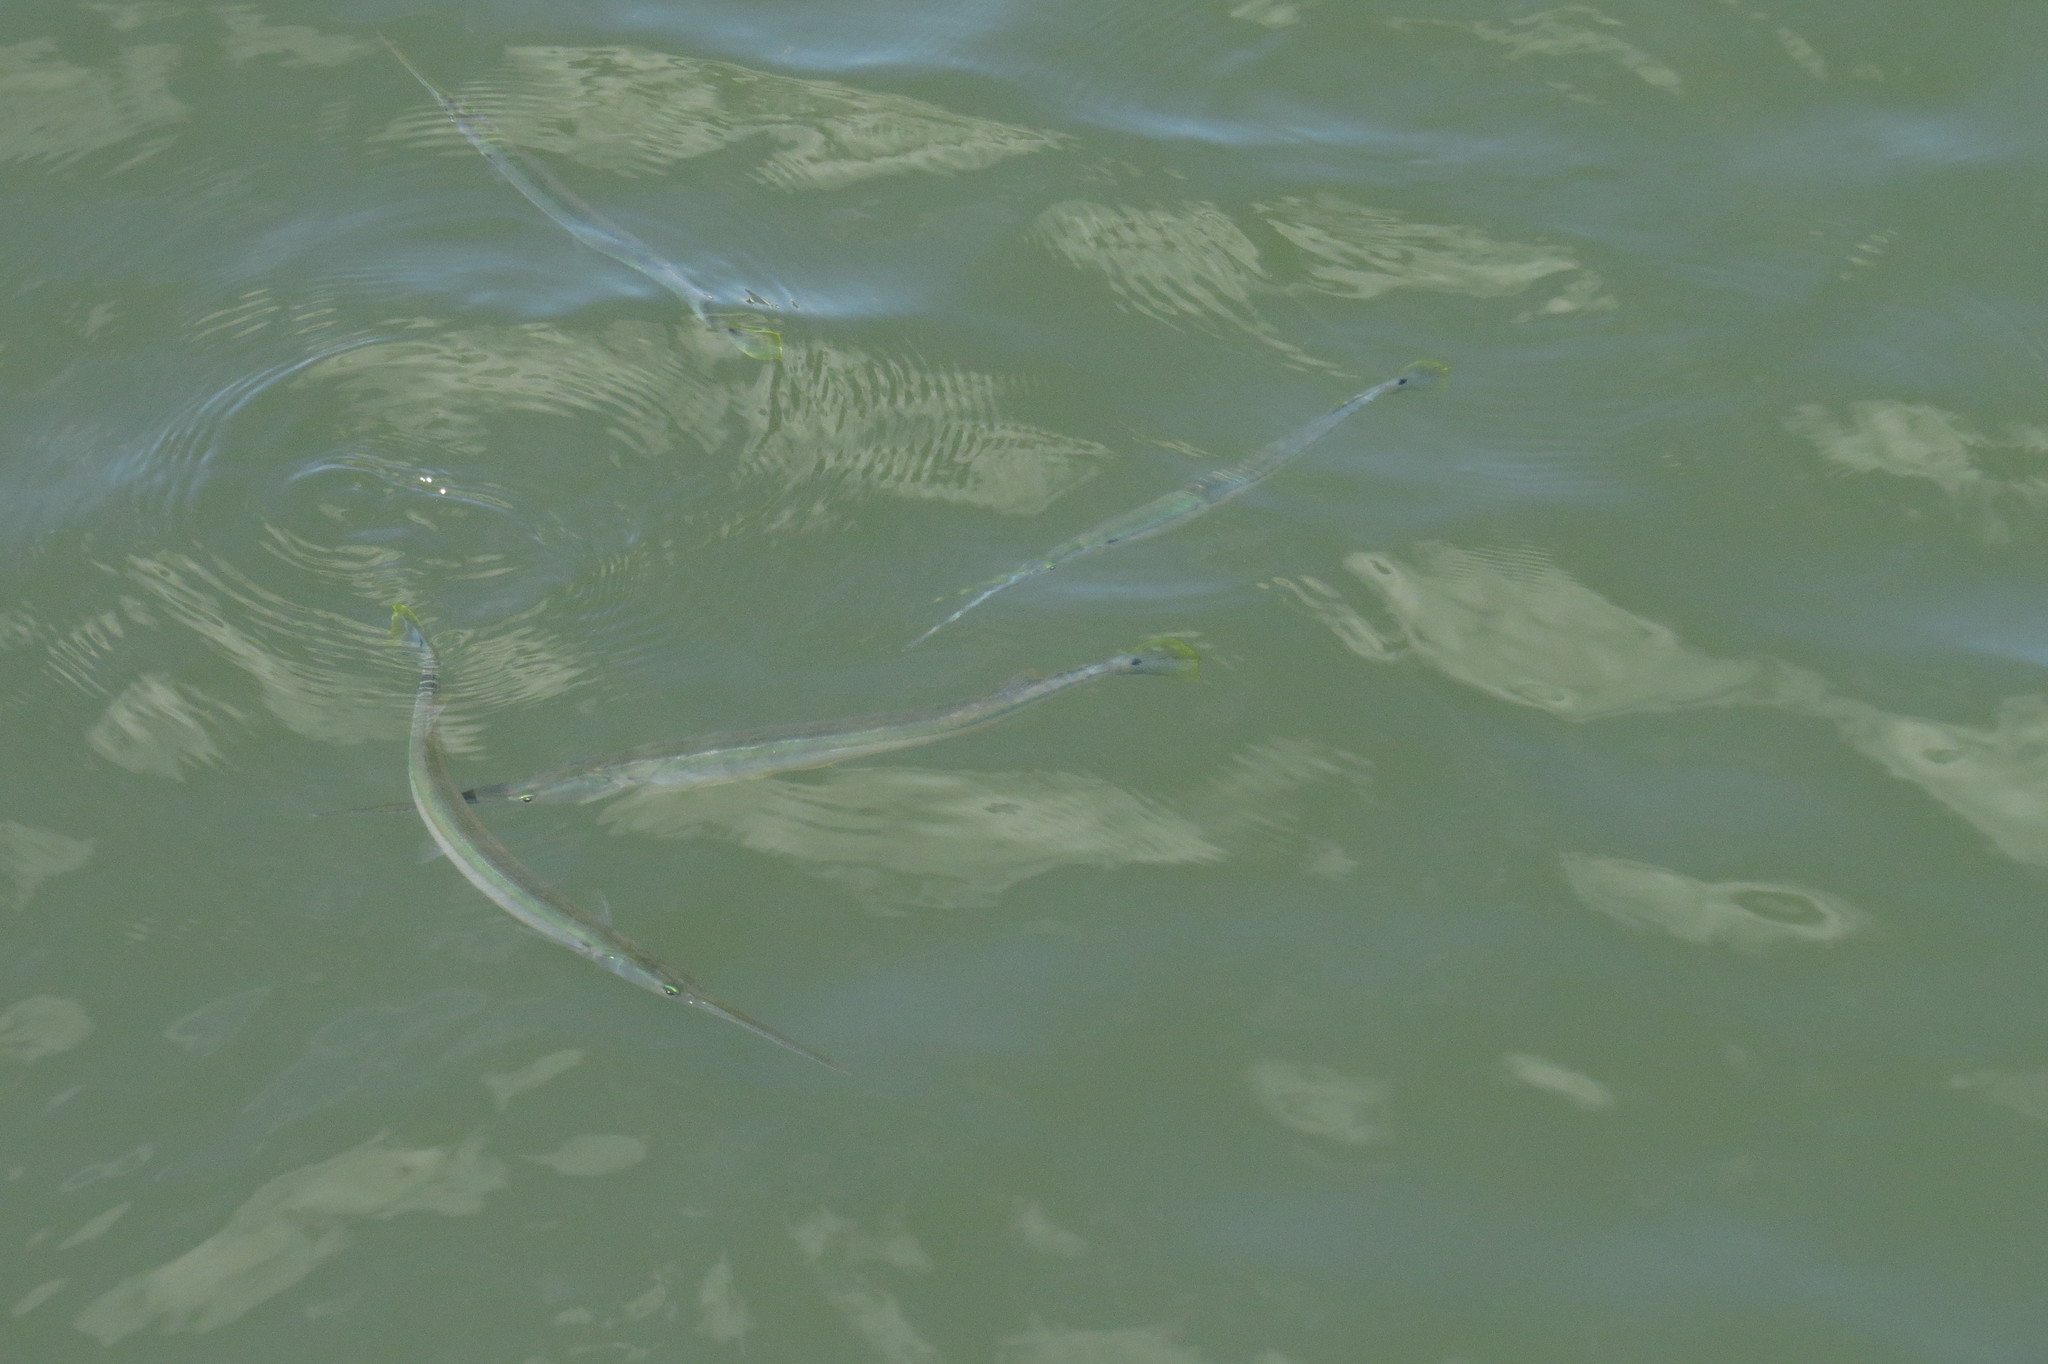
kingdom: Animalia
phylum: Chordata
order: Beloniformes
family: Belonidae
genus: Strongylura
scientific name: Strongylura strongylura
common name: Spottail needlefish
